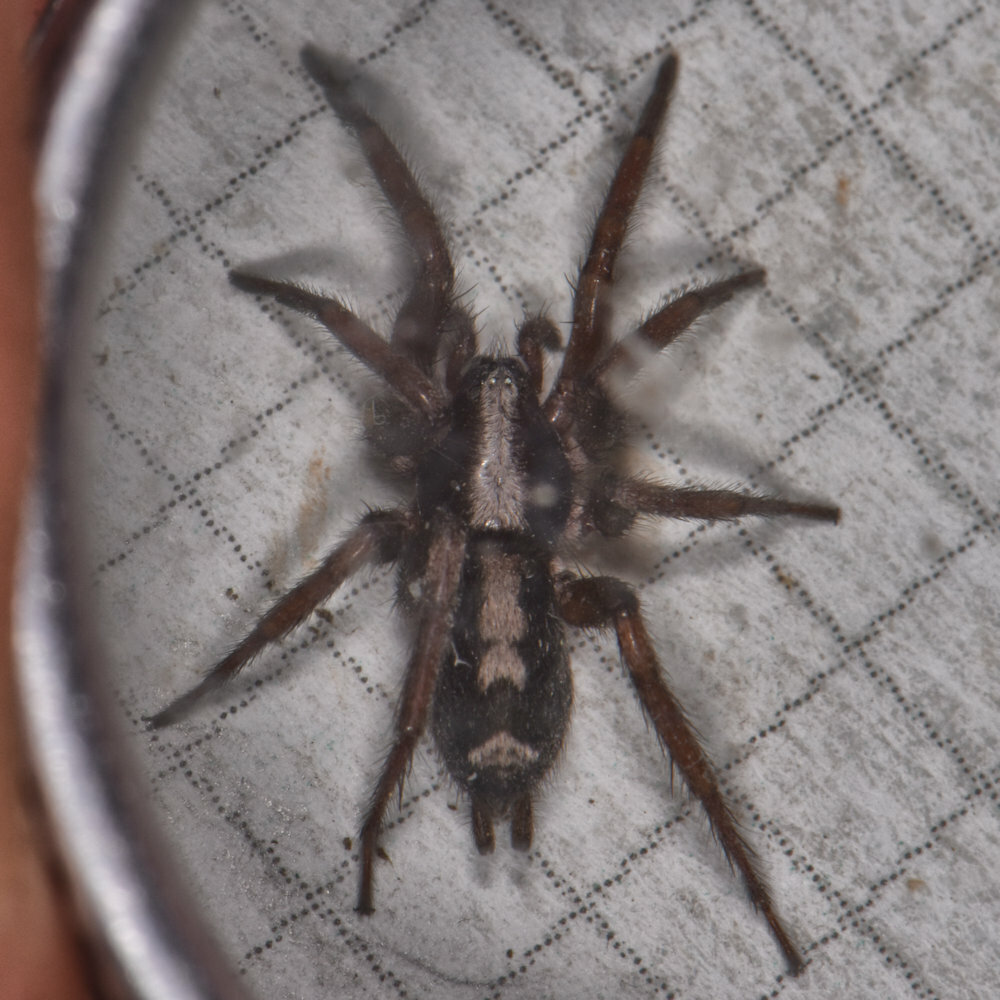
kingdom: Animalia
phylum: Arthropoda
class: Arachnida
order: Araneae
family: Gnaphosidae
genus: Herpyllus
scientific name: Herpyllus ecclesiasticus
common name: Eastern parson spider
